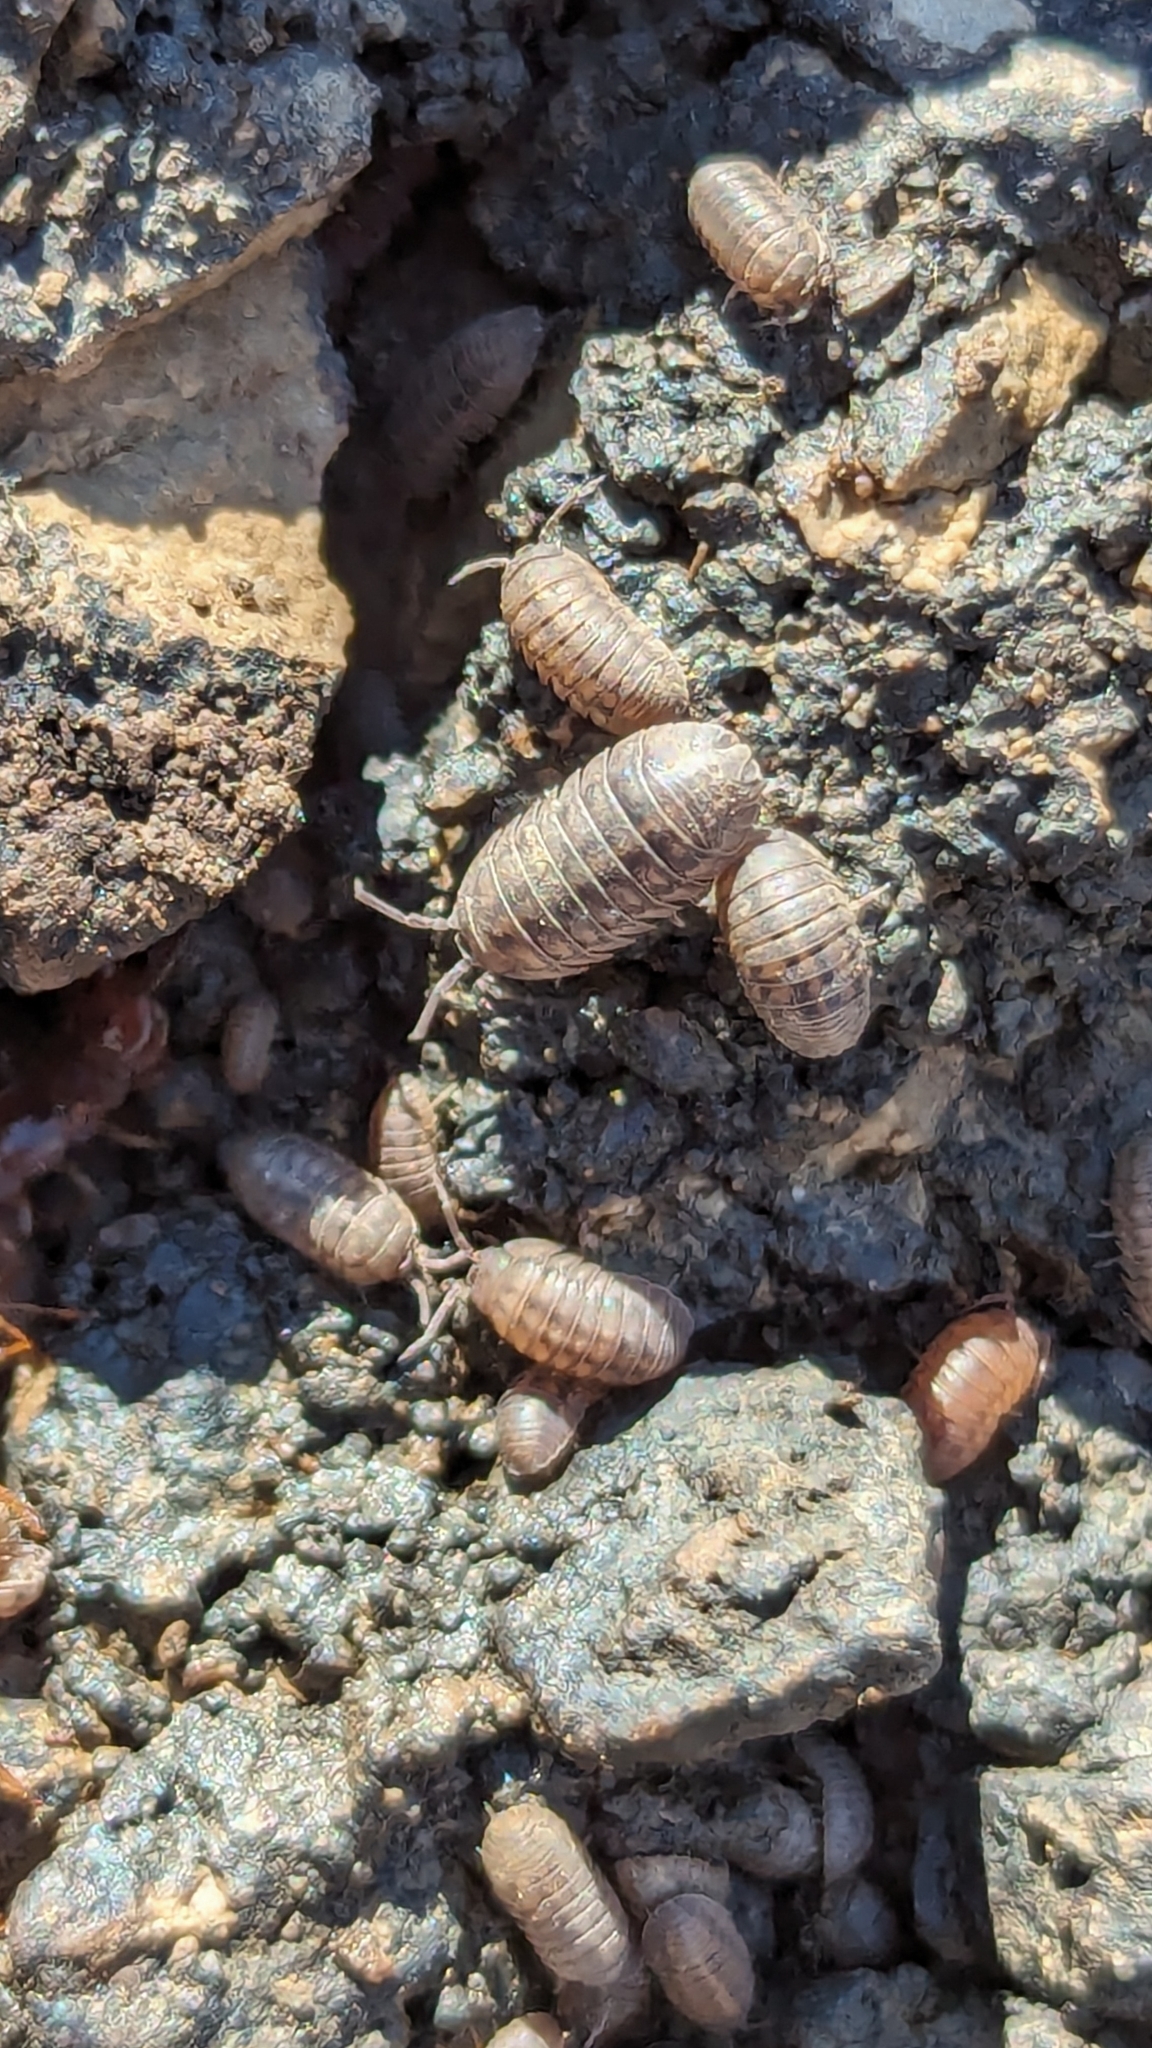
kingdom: Animalia
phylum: Arthropoda
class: Malacostraca
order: Isopoda
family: Armadillidiidae
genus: Armadillidium
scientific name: Armadillidium nasatum
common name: Isopod
